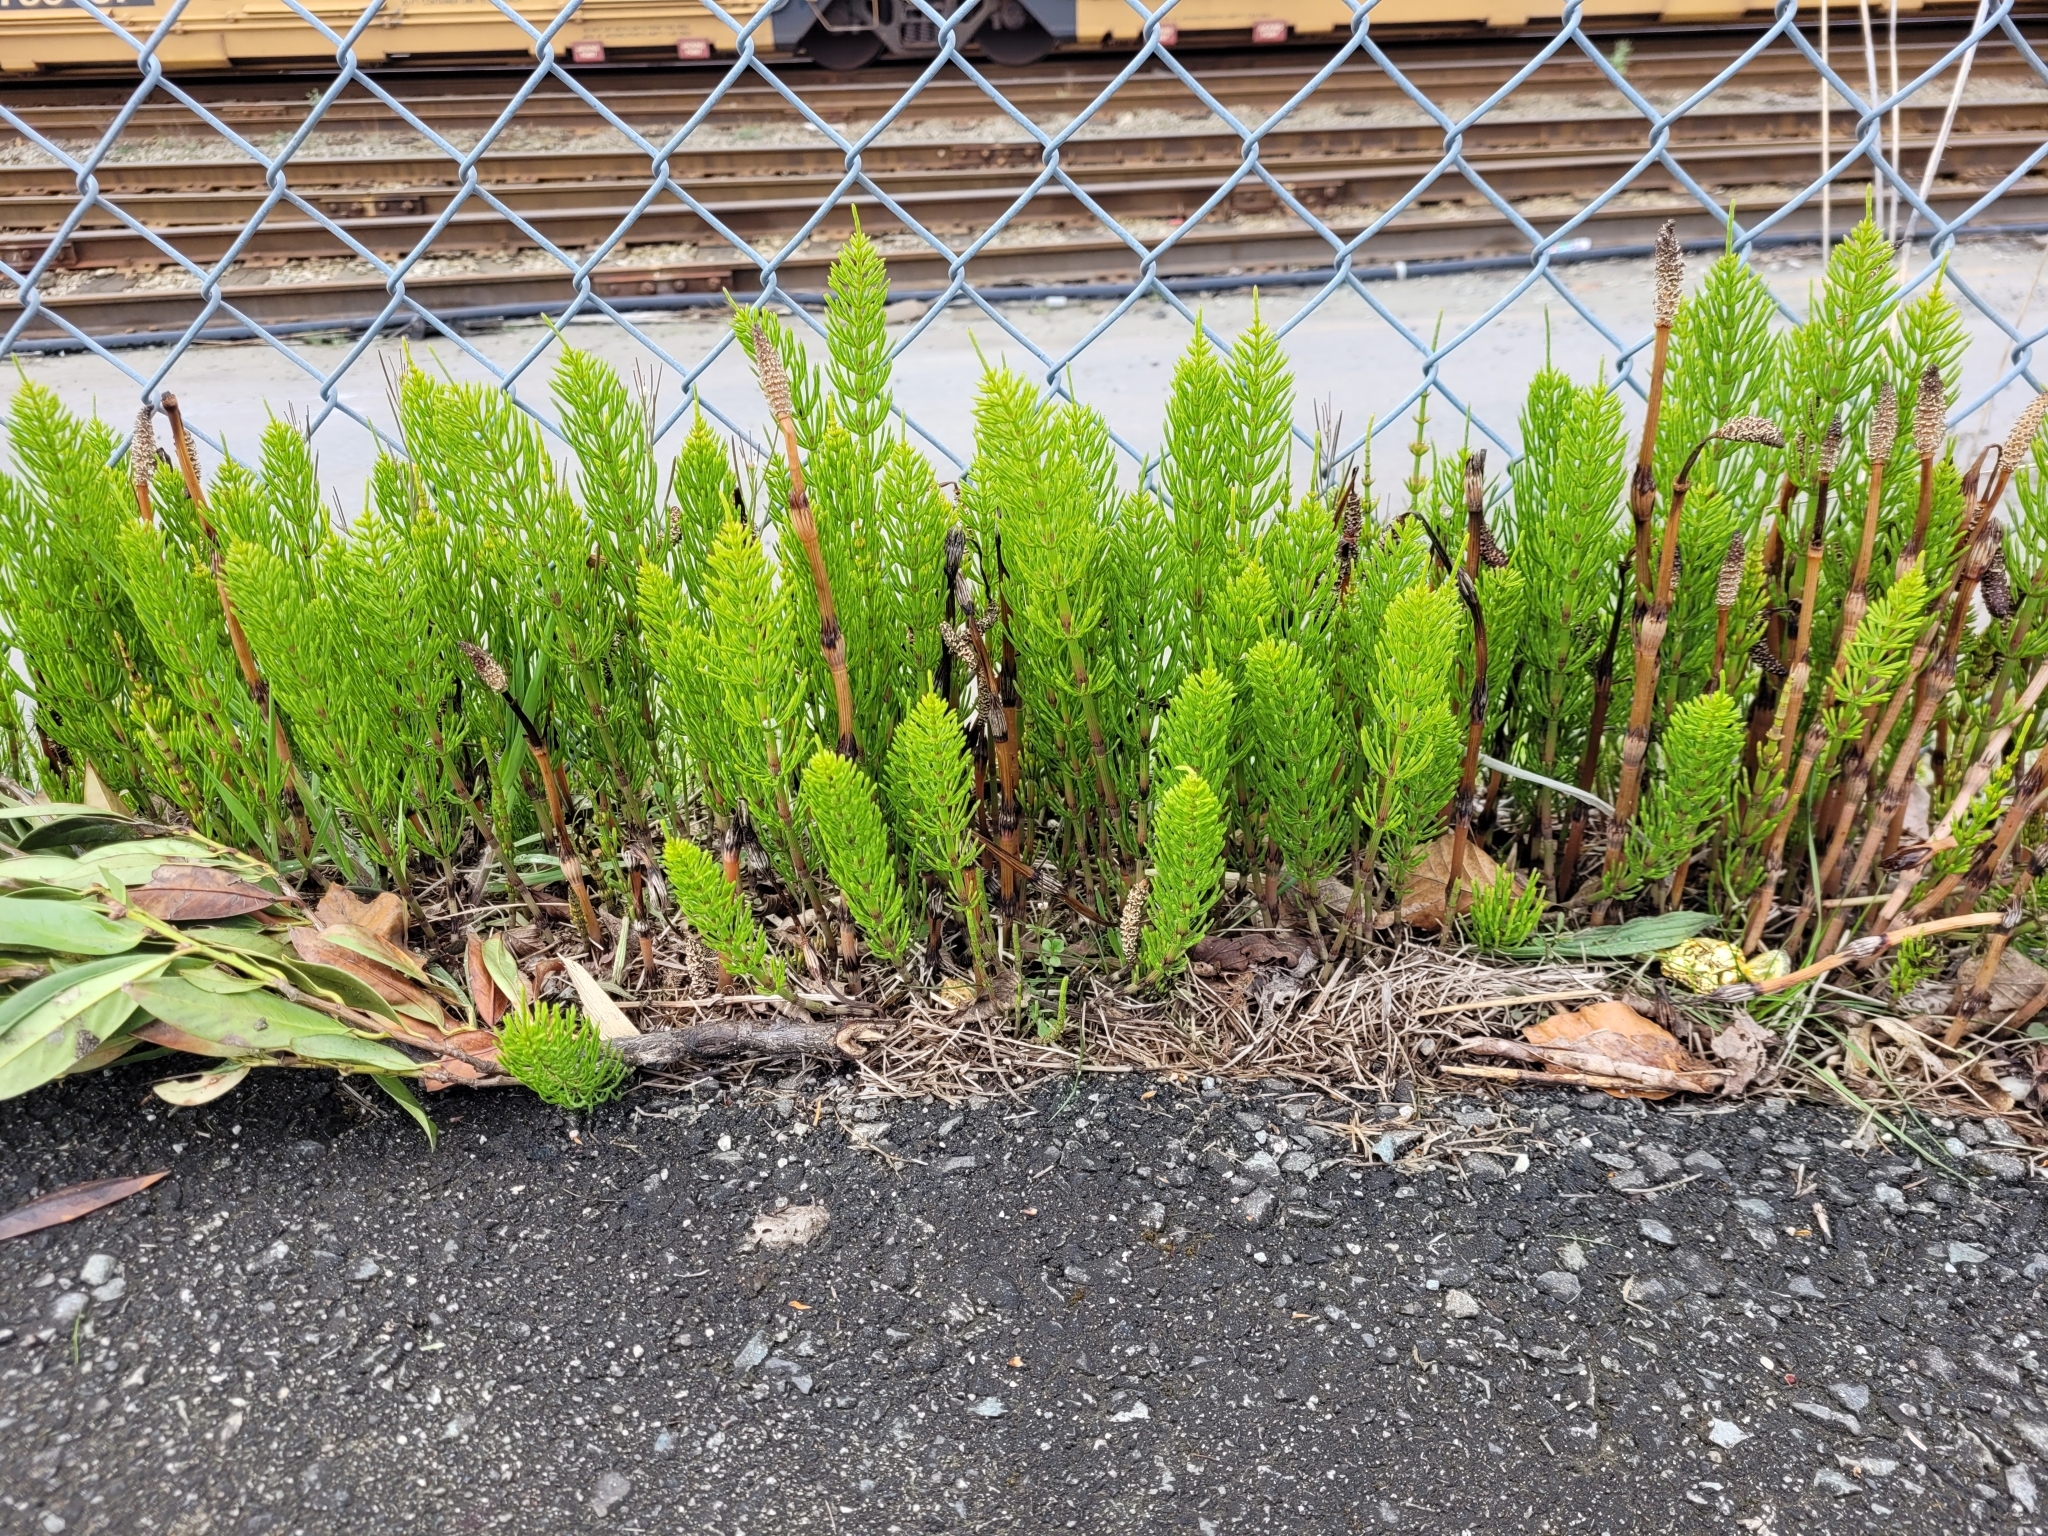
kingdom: Plantae
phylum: Tracheophyta
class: Polypodiopsida
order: Equisetales
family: Equisetaceae
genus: Equisetum
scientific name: Equisetum arvense
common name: Field horsetail
